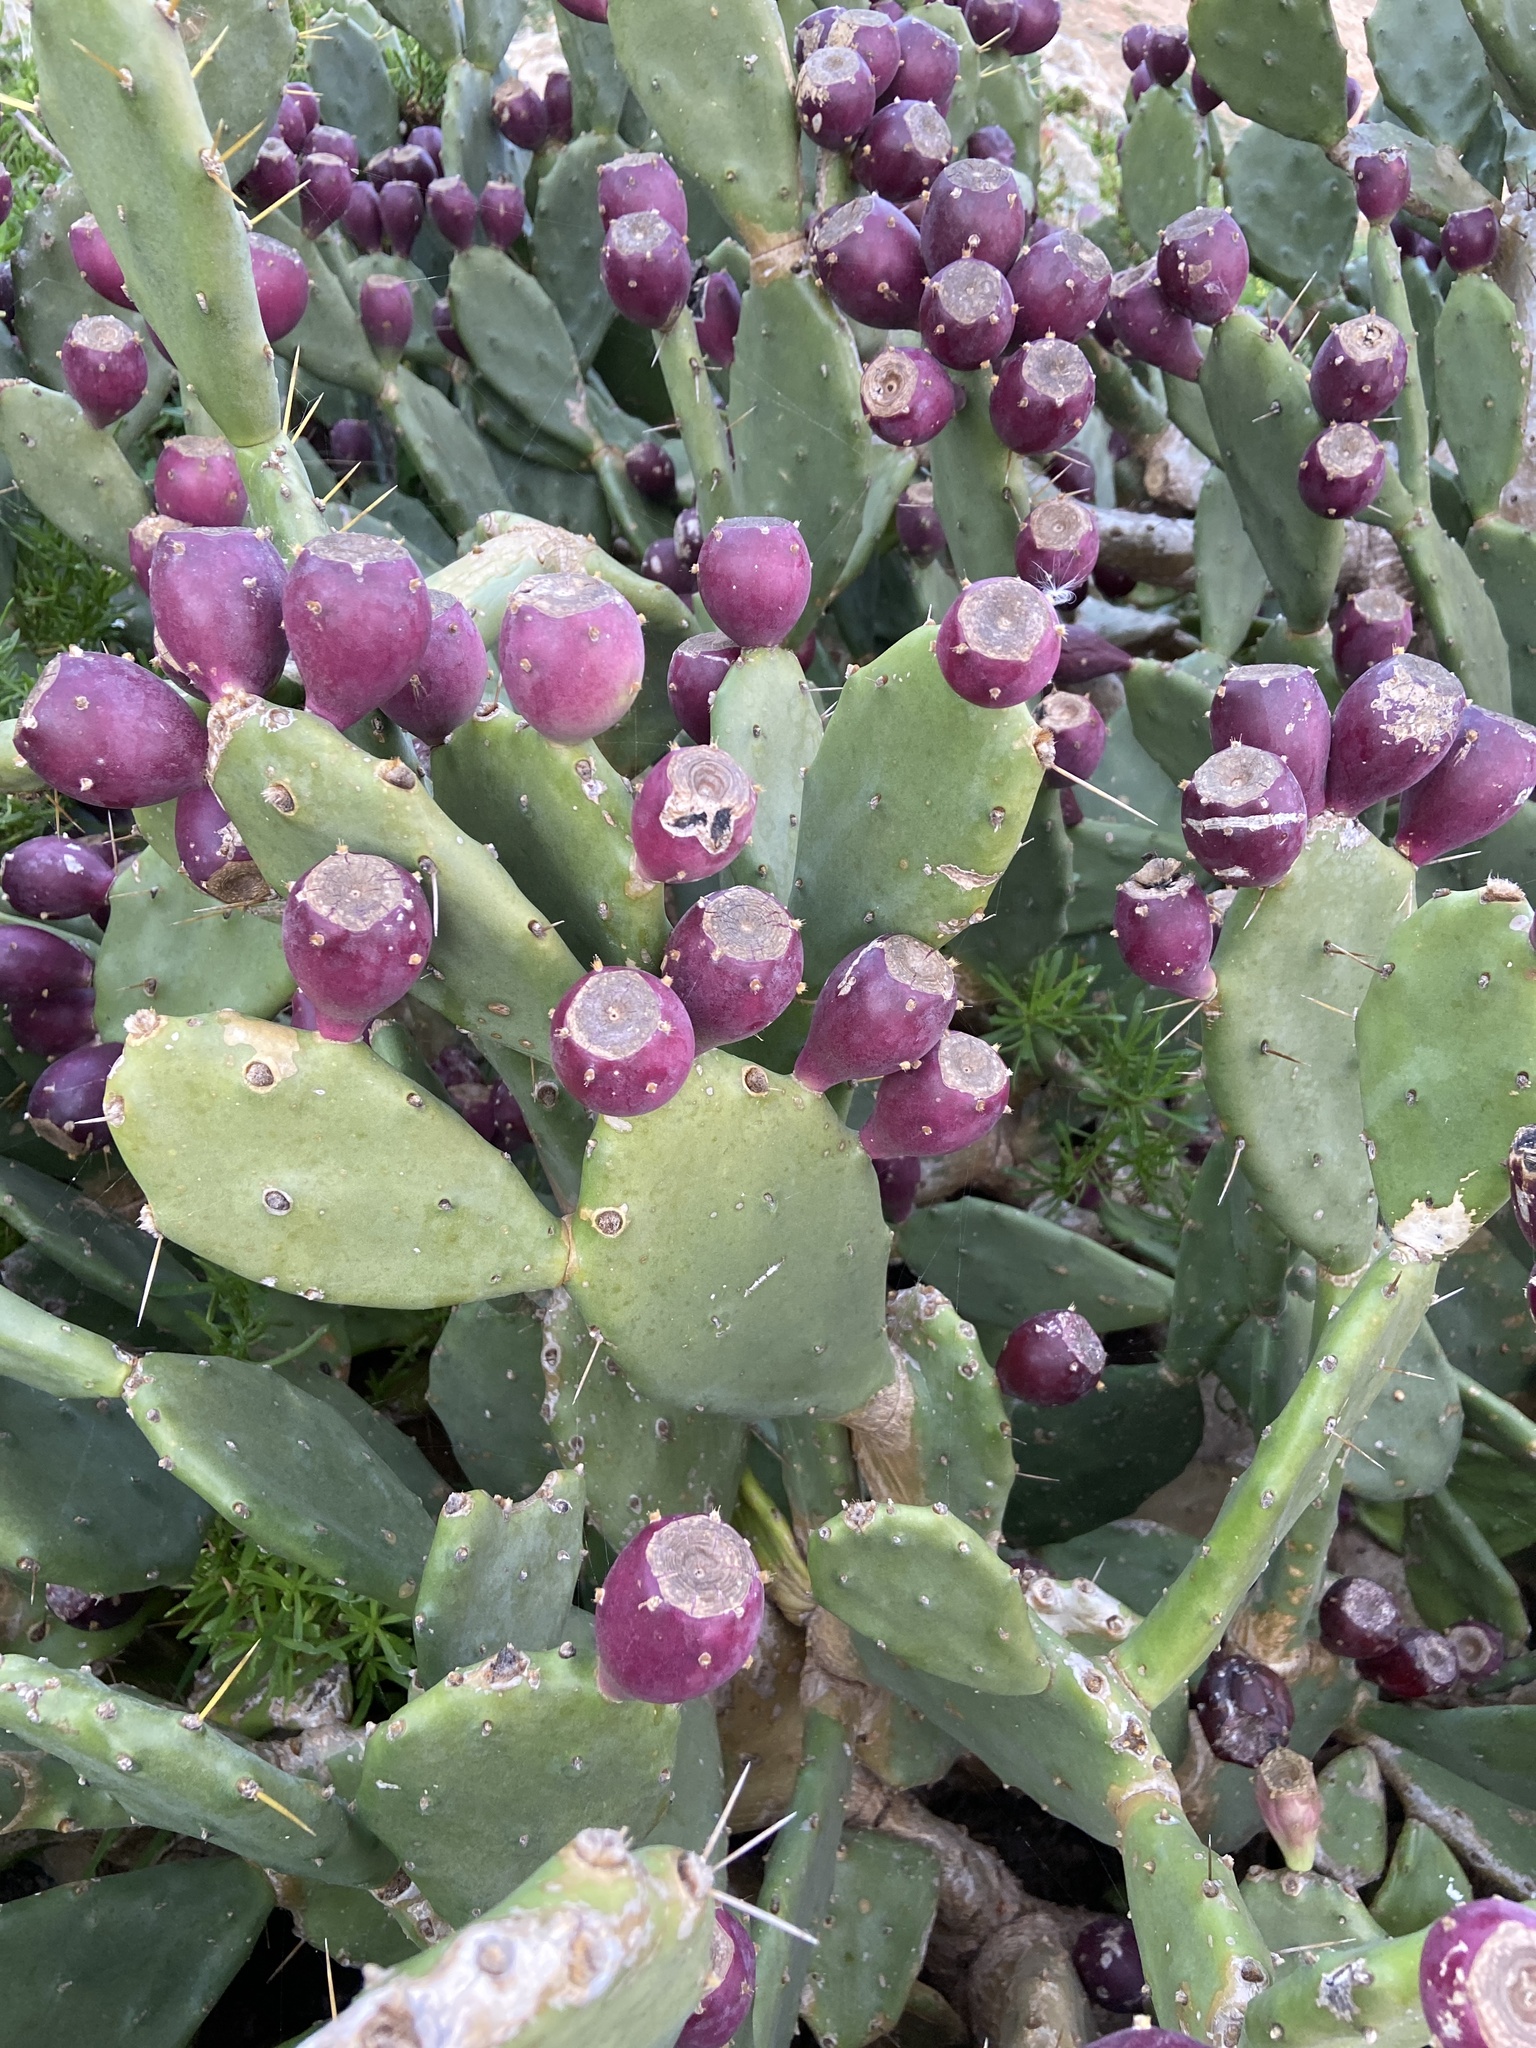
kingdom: Plantae
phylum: Tracheophyta
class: Magnoliopsida
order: Caryophyllales
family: Cactaceae
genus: Opuntia
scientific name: Opuntia stricta
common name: Erect pricklypear
